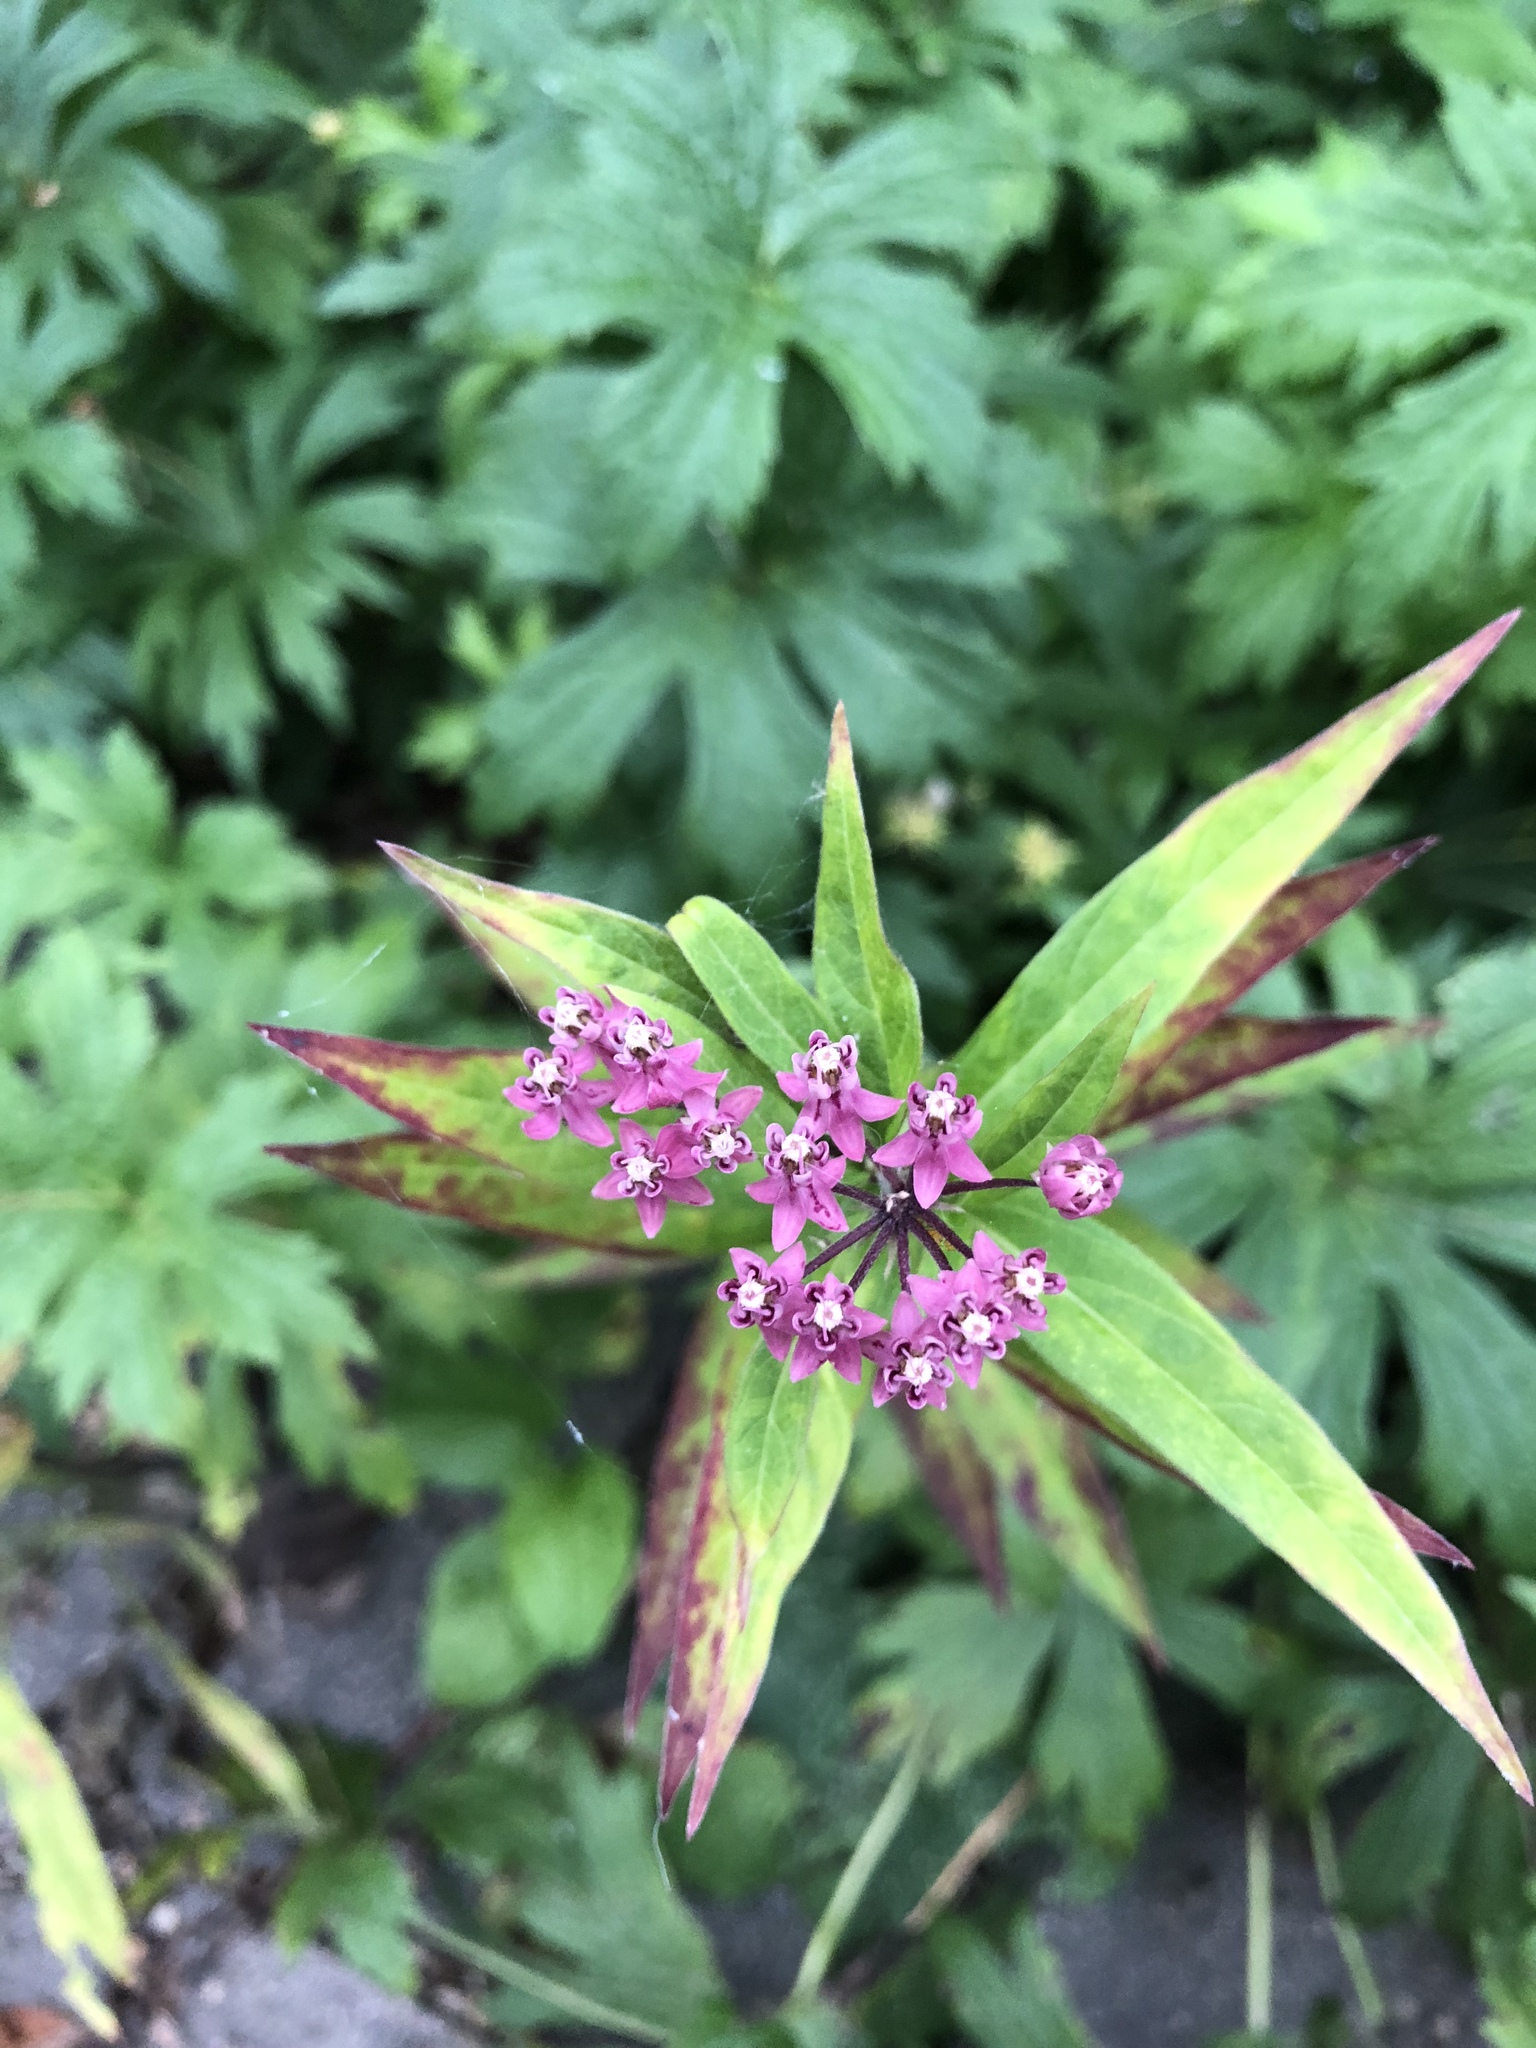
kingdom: Plantae
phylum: Tracheophyta
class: Magnoliopsida
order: Gentianales
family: Apocynaceae
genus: Asclepias
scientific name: Asclepias incarnata
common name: Swamp milkweed
